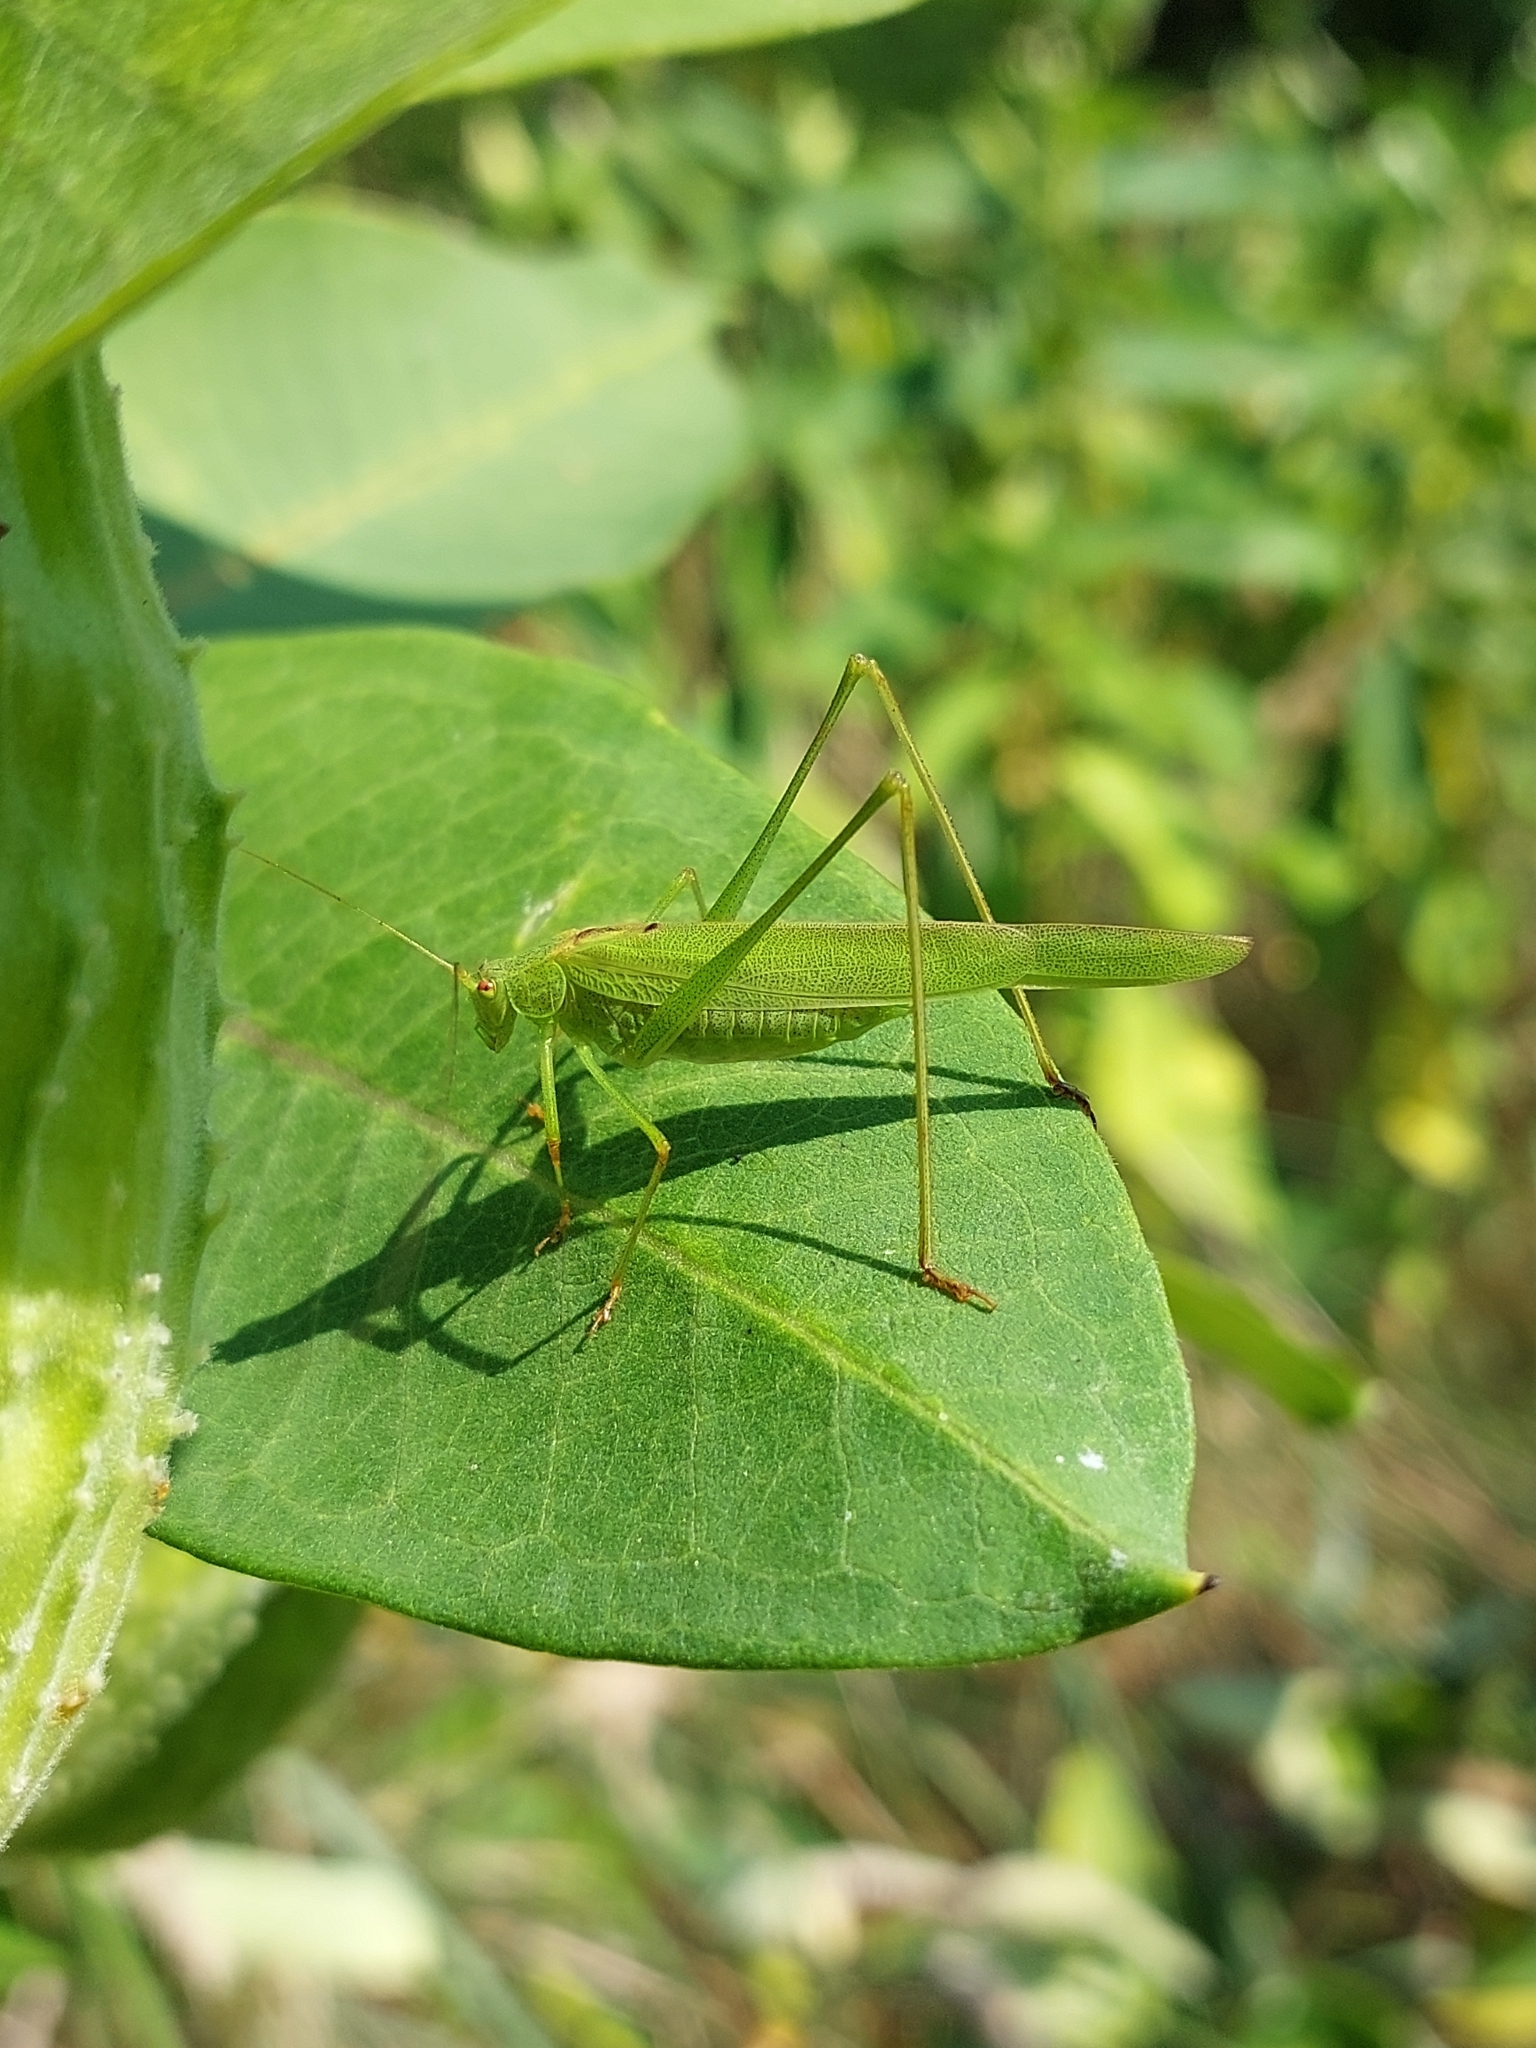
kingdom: Animalia
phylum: Arthropoda
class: Insecta
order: Orthoptera
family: Tettigoniidae
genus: Phaneroptera
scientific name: Phaneroptera falcata
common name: Sickle-bearing bush-cricket
